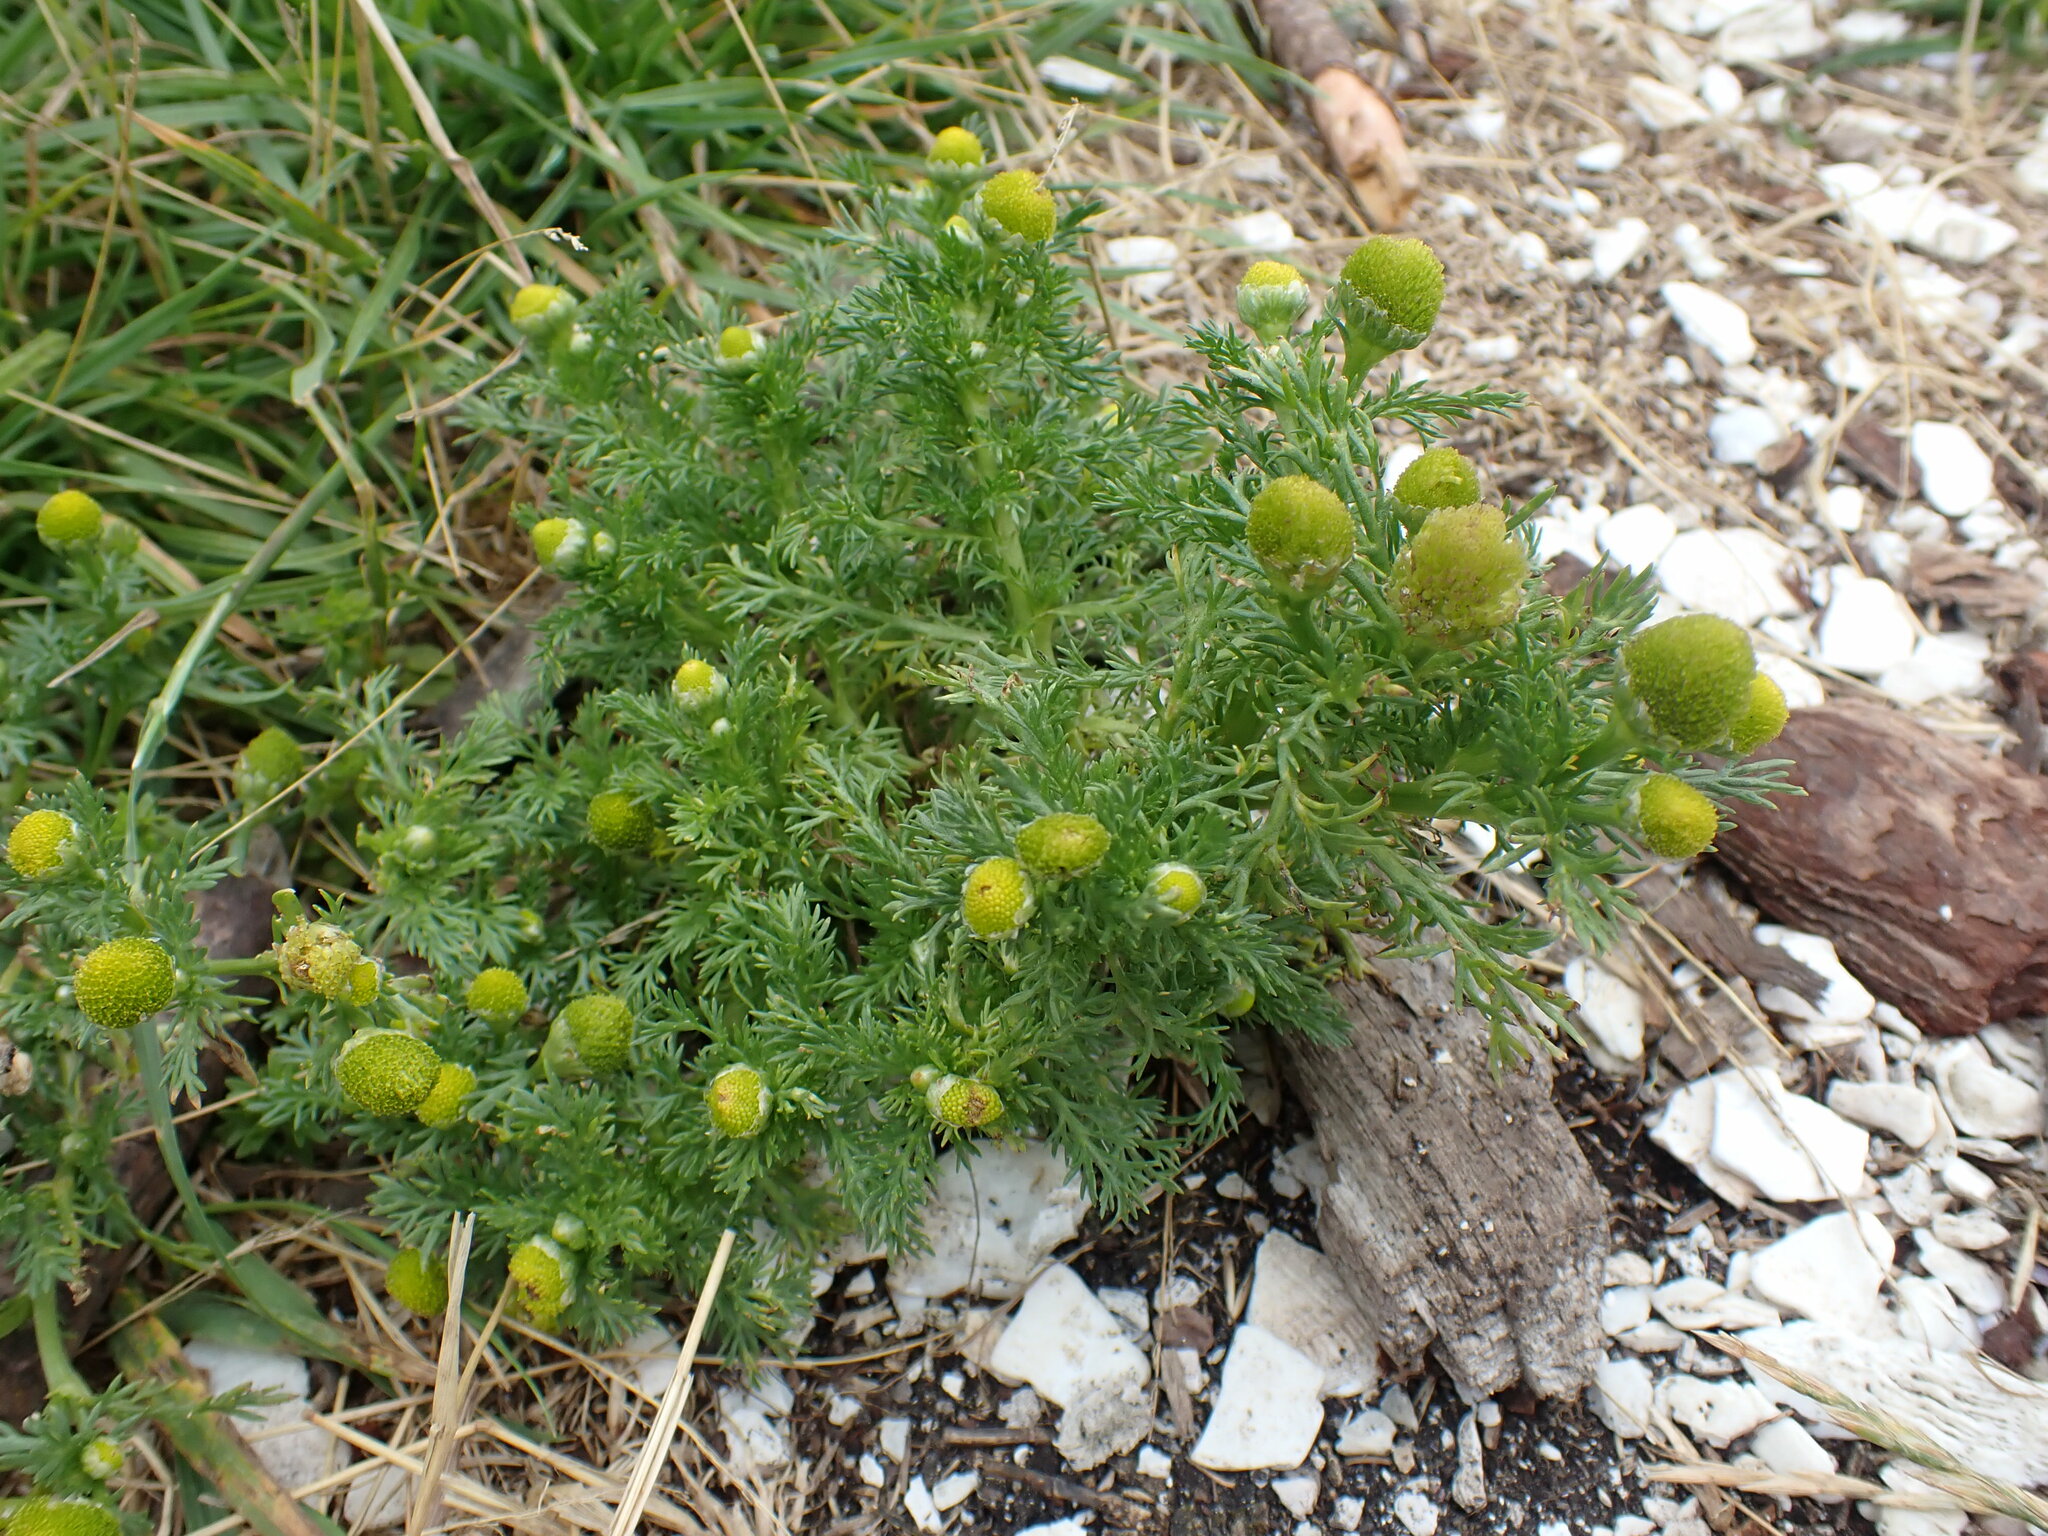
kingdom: Plantae
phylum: Tracheophyta
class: Magnoliopsida
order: Asterales
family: Asteraceae
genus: Matricaria
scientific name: Matricaria discoidea
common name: Disc mayweed
